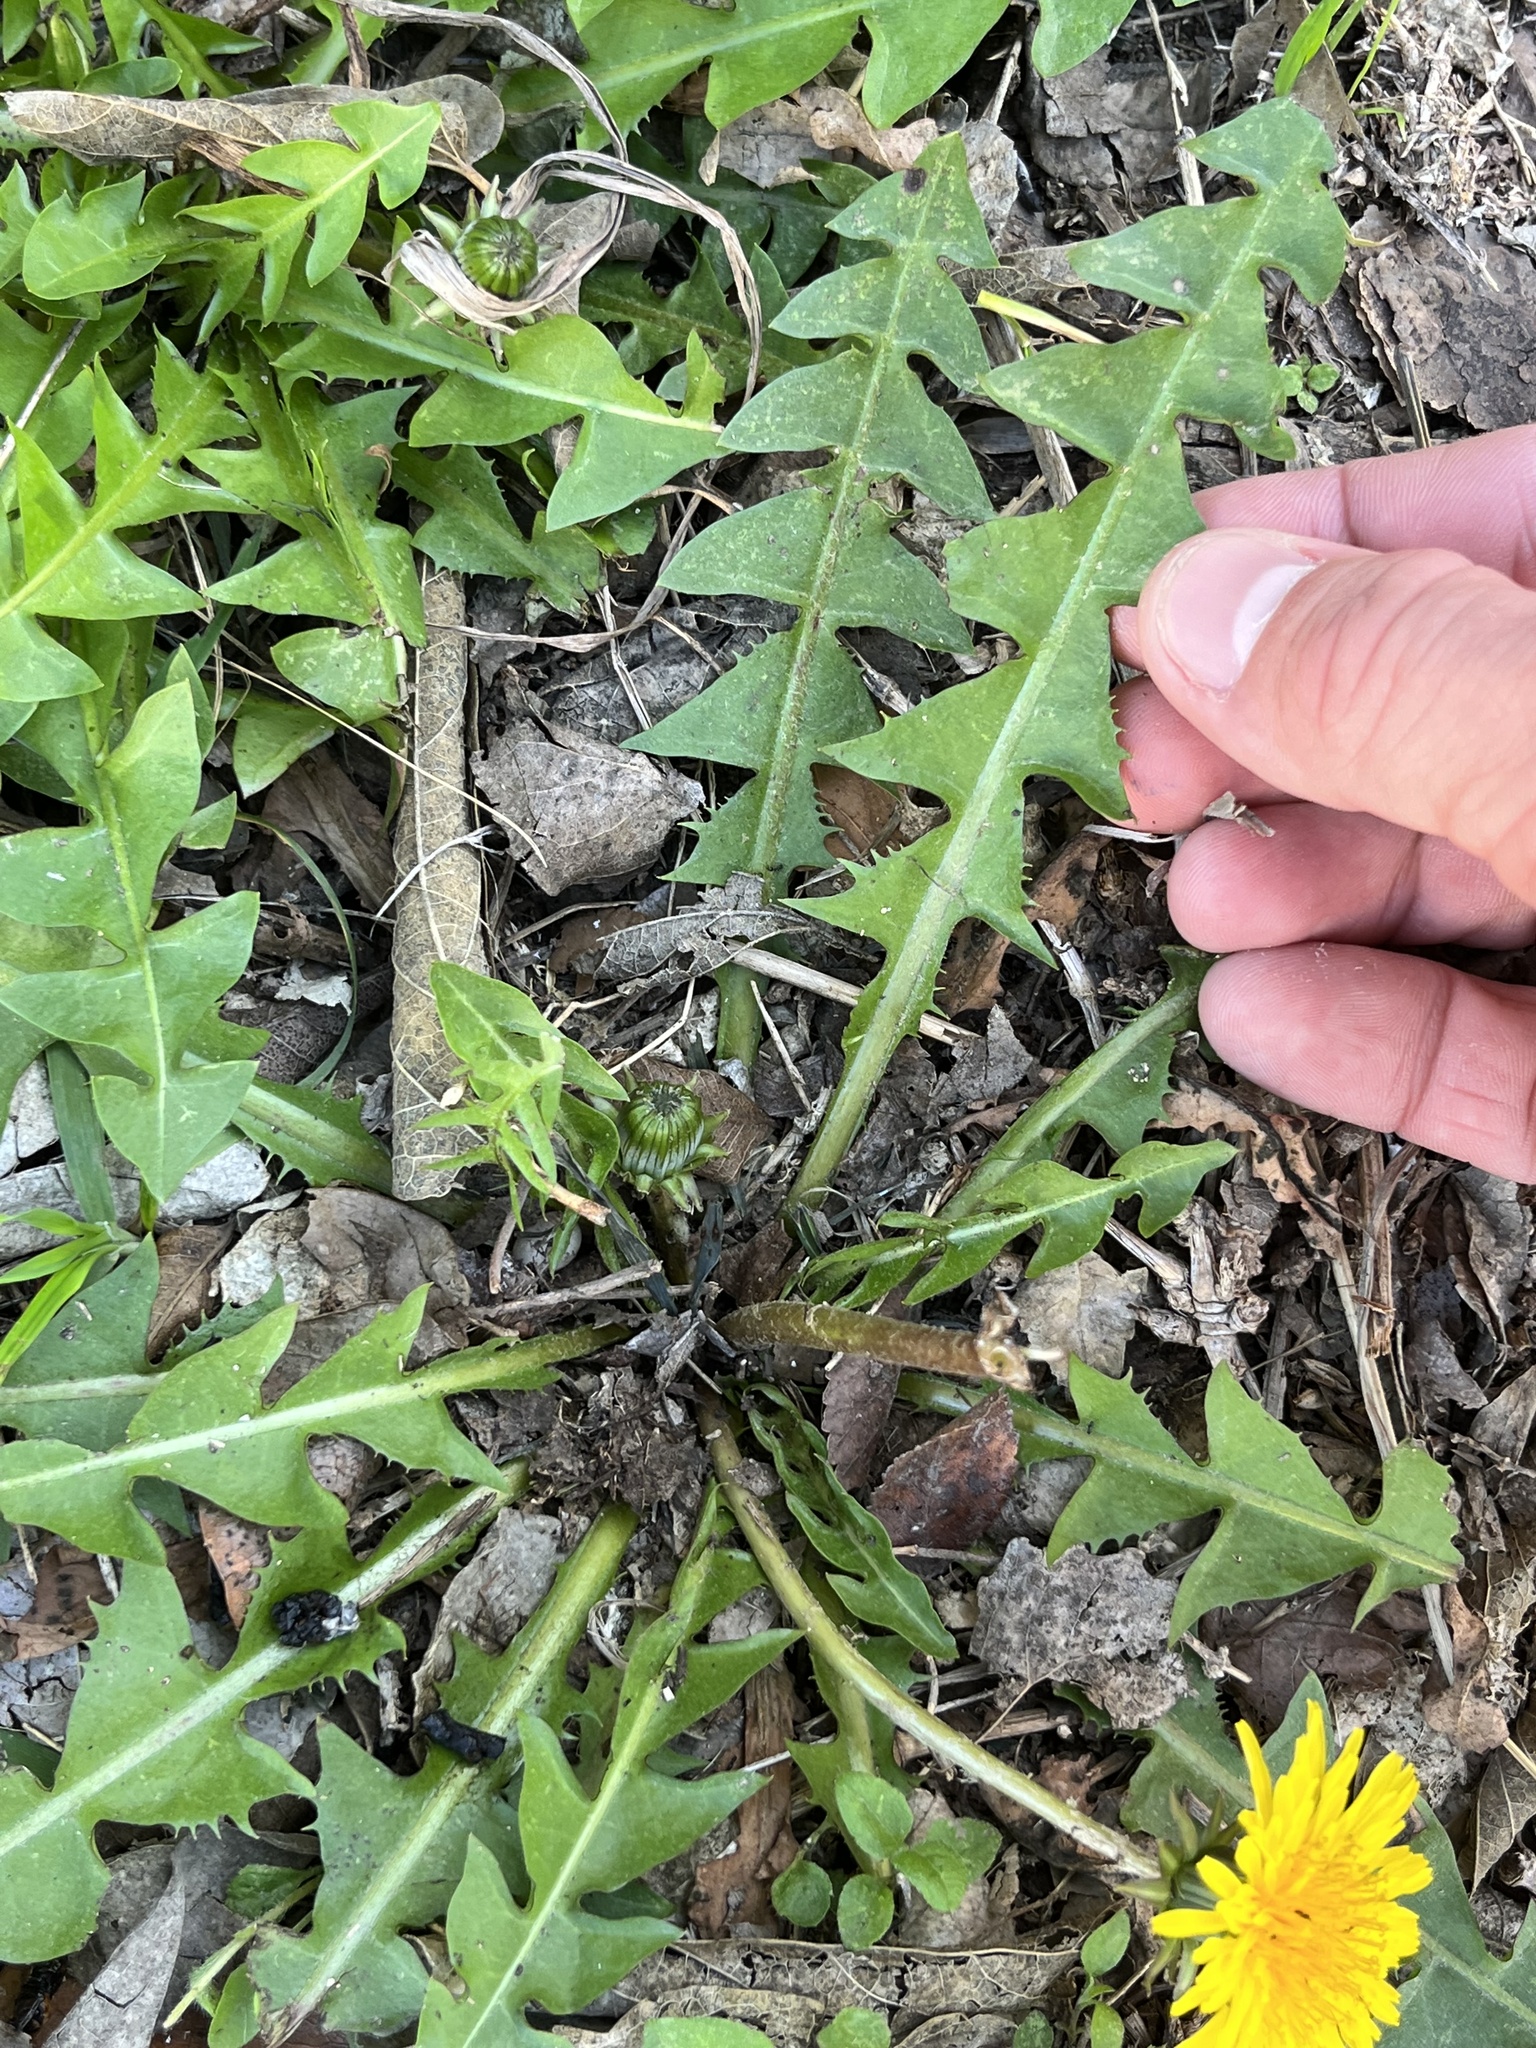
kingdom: Plantae
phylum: Tracheophyta
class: Magnoliopsida
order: Asterales
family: Asteraceae
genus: Taraxacum
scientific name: Taraxacum officinale
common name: Common dandelion
